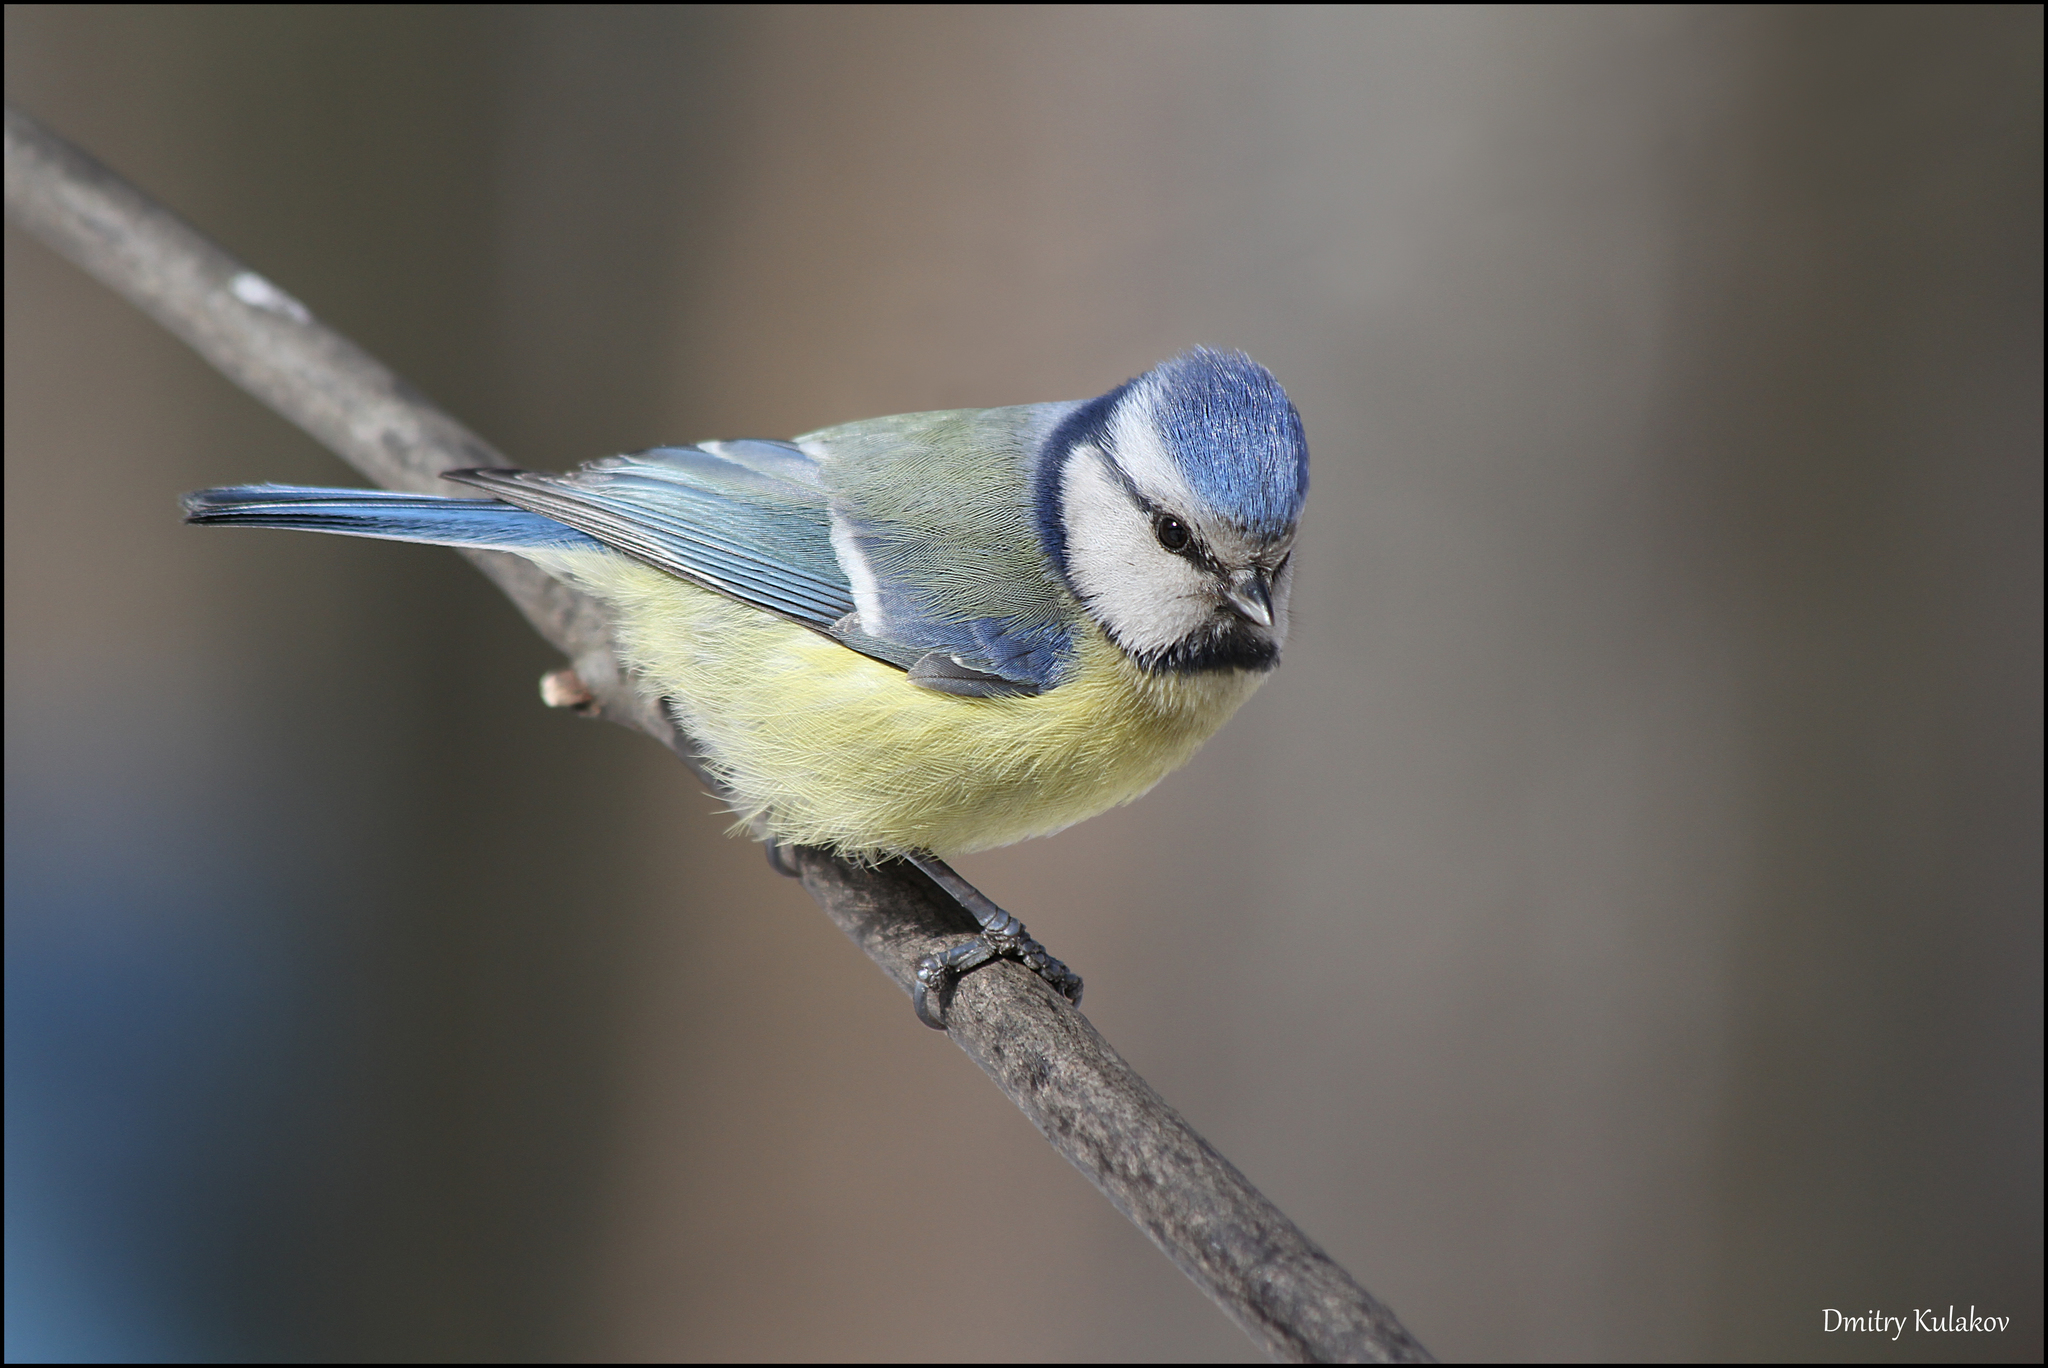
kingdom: Animalia
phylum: Chordata
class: Aves
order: Passeriformes
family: Paridae
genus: Cyanistes
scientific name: Cyanistes caeruleus
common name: Eurasian blue tit
